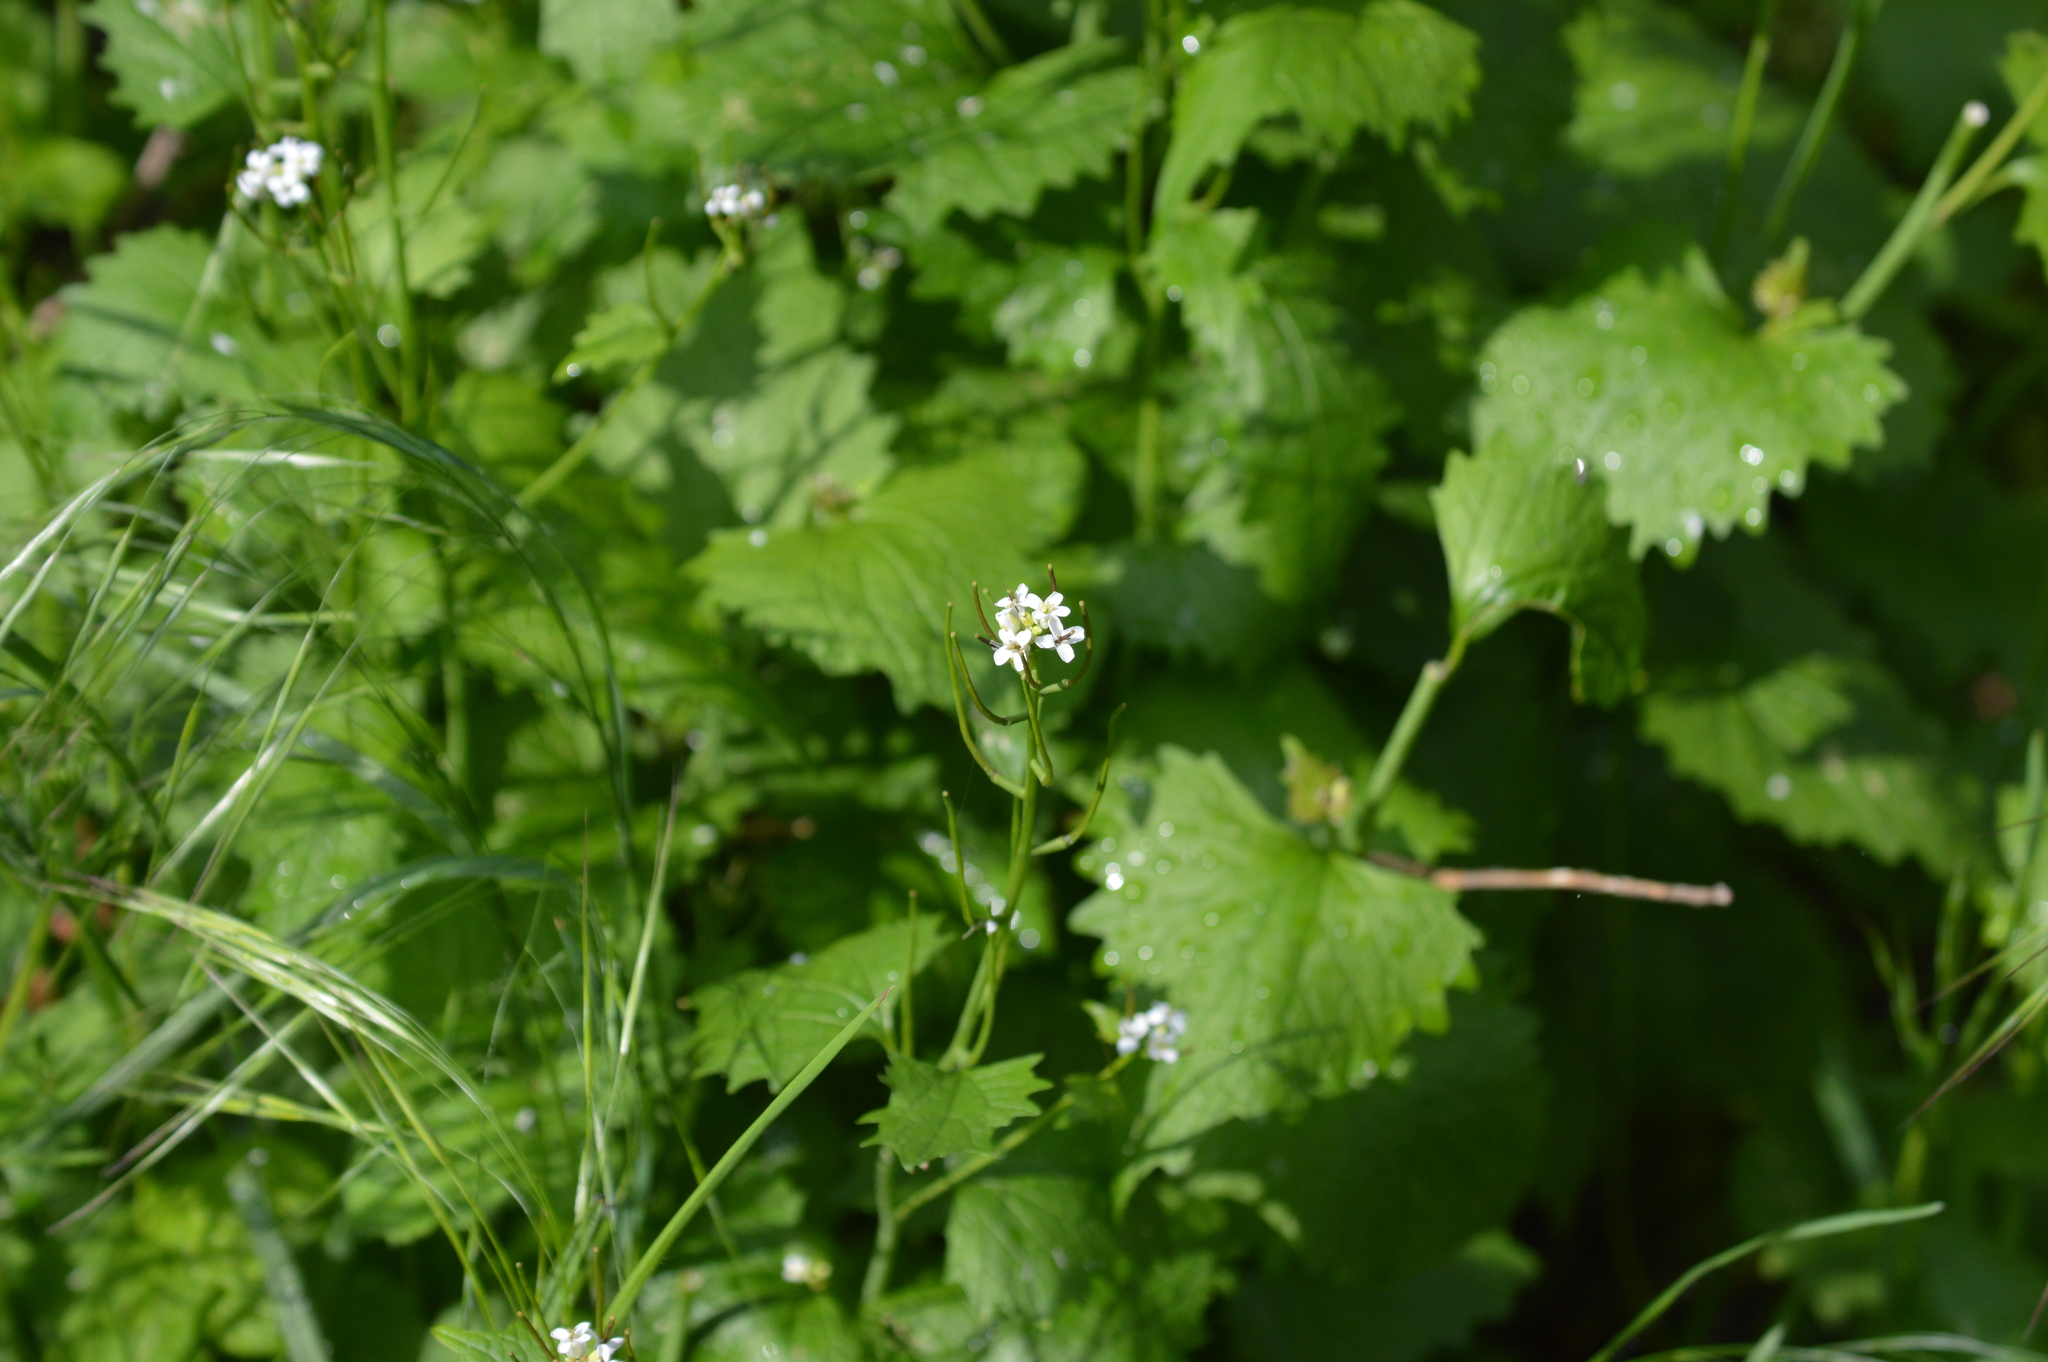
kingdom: Plantae
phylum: Tracheophyta
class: Magnoliopsida
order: Brassicales
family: Brassicaceae
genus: Alliaria
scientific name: Alliaria petiolata
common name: Garlic mustard
